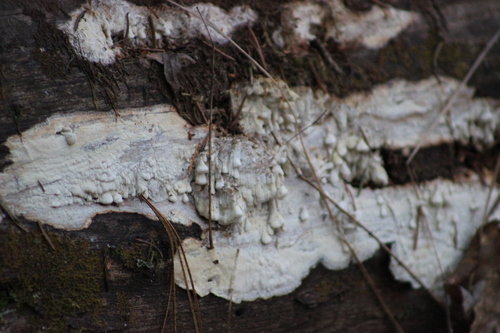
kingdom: Fungi
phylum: Basidiomycota
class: Agaricomycetes
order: Polyporales
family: Fomitopsidaceae
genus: Daedalea
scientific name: Daedalea xantha
